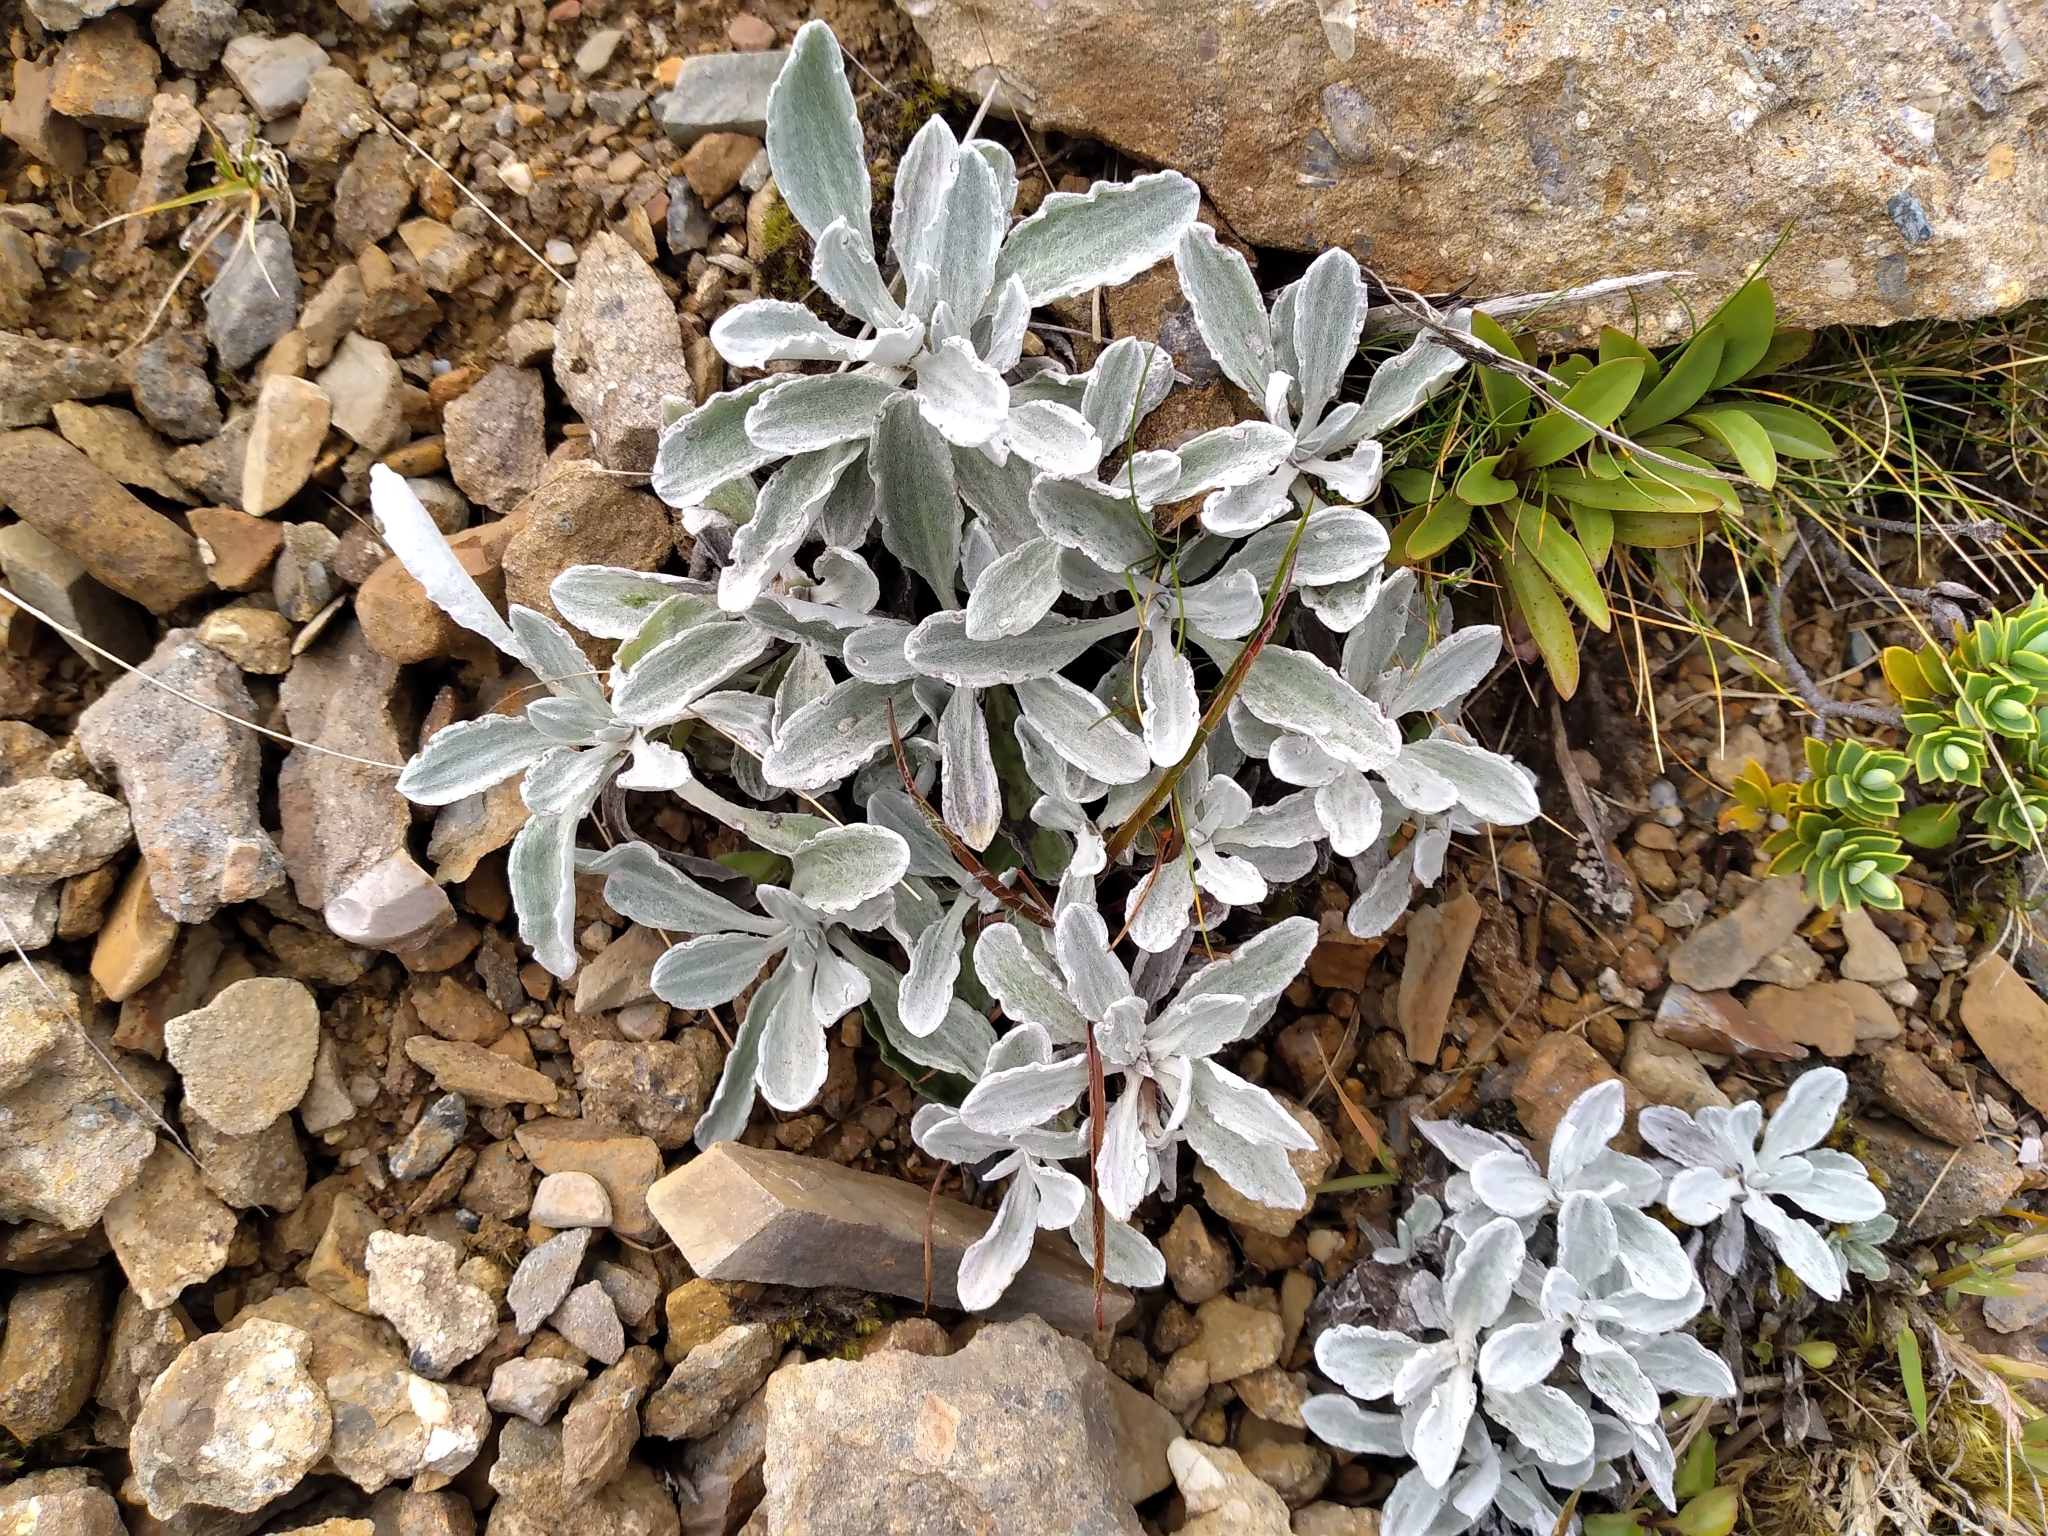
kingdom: Plantae
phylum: Tracheophyta
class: Magnoliopsida
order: Asterales
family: Asteraceae
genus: Celmisia
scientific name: Celmisia allanii
